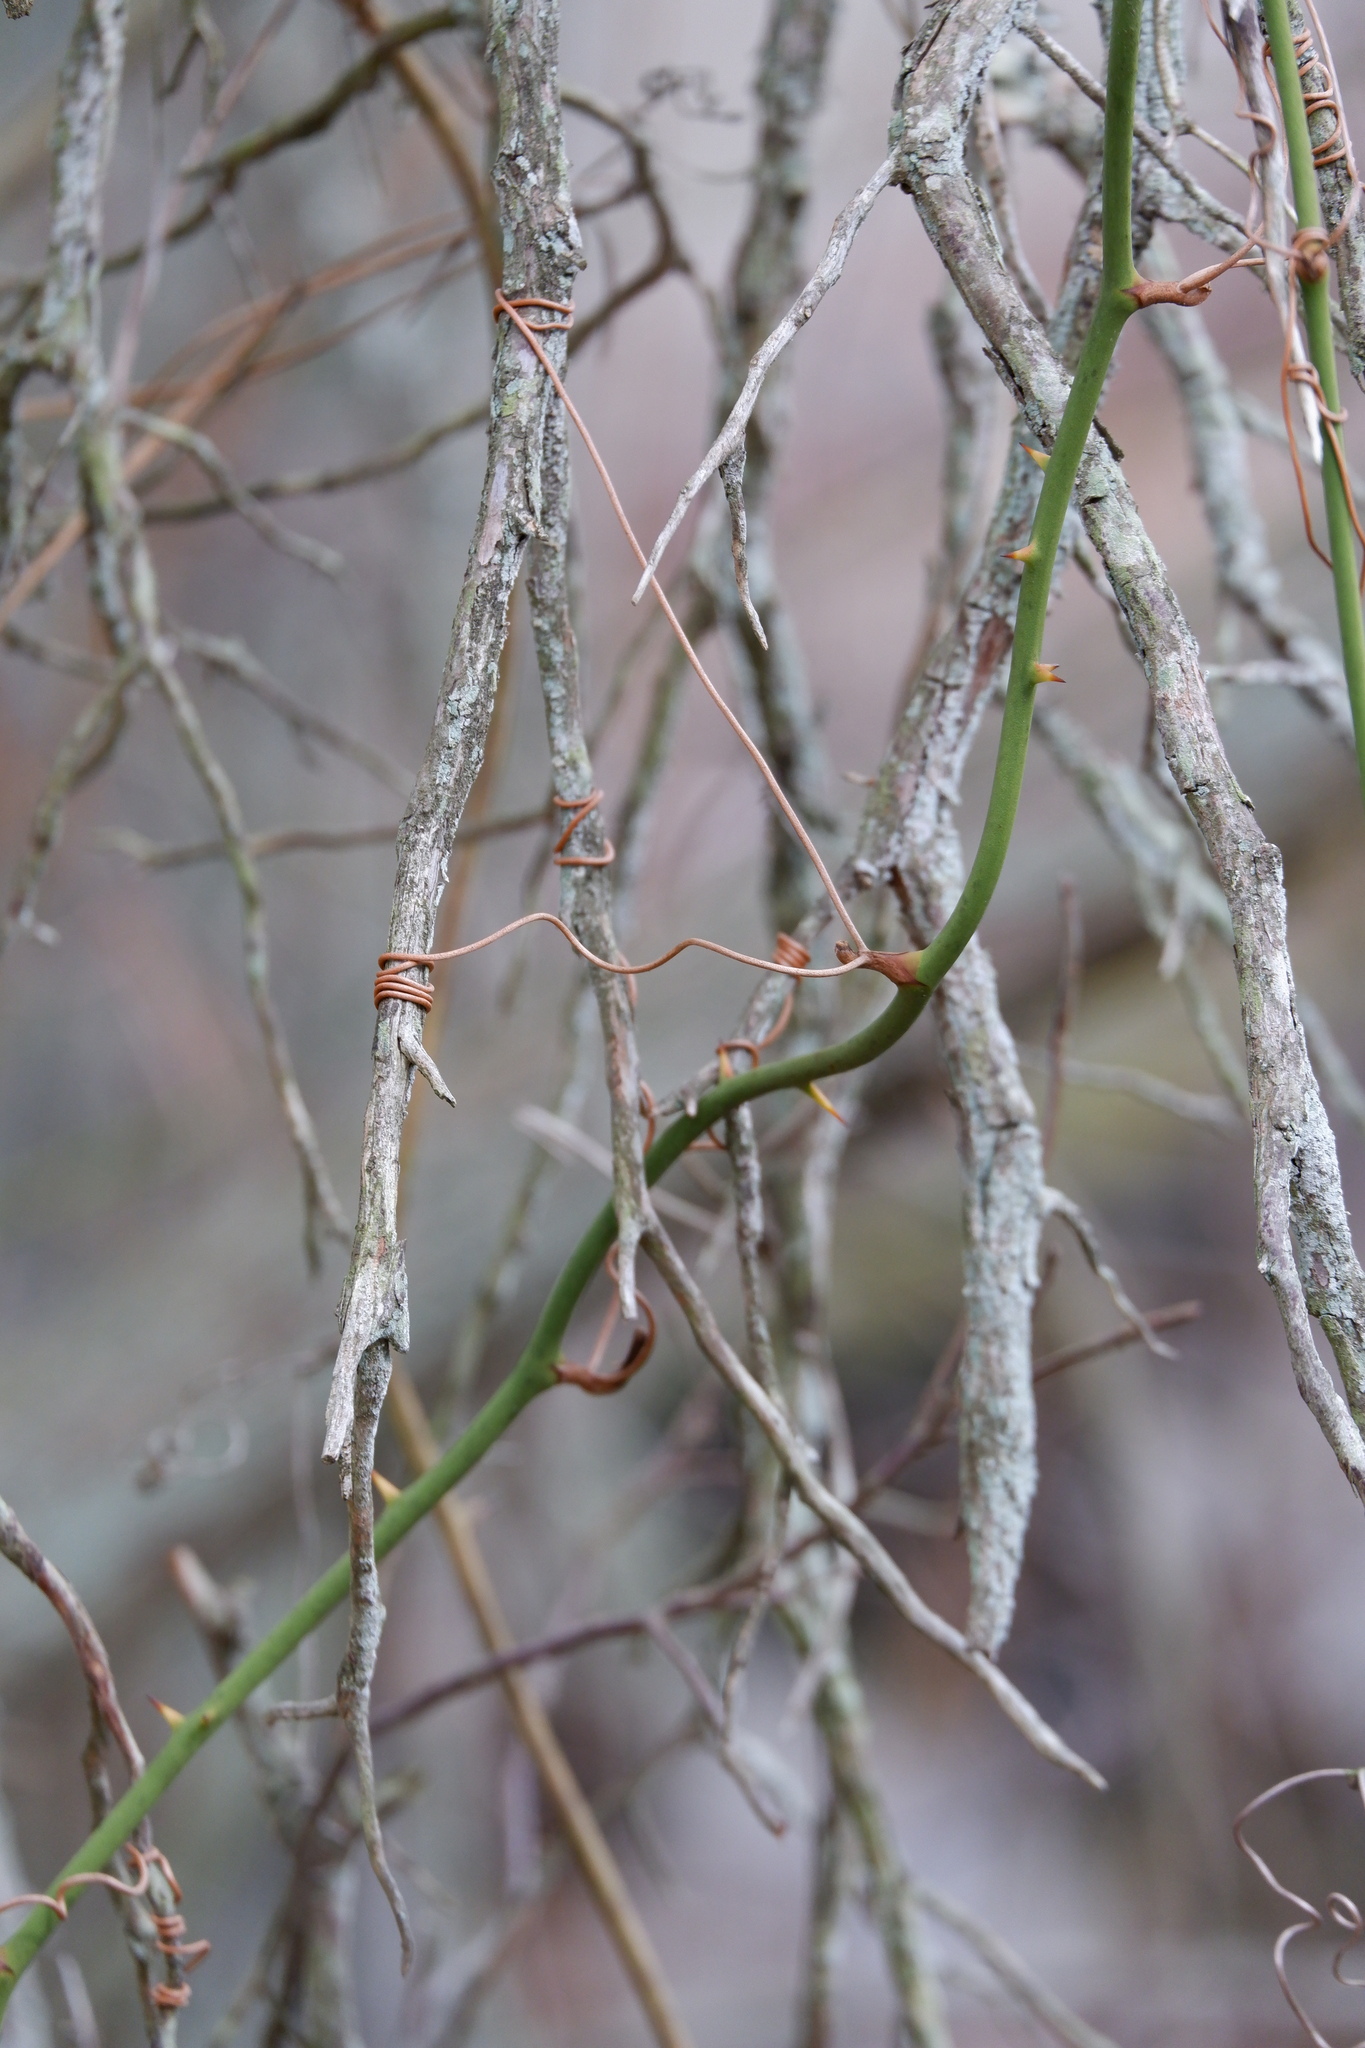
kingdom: Plantae
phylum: Tracheophyta
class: Liliopsida
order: Liliales
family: Smilacaceae
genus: Smilax
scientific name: Smilax rotundifolia
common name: Bullbriar
